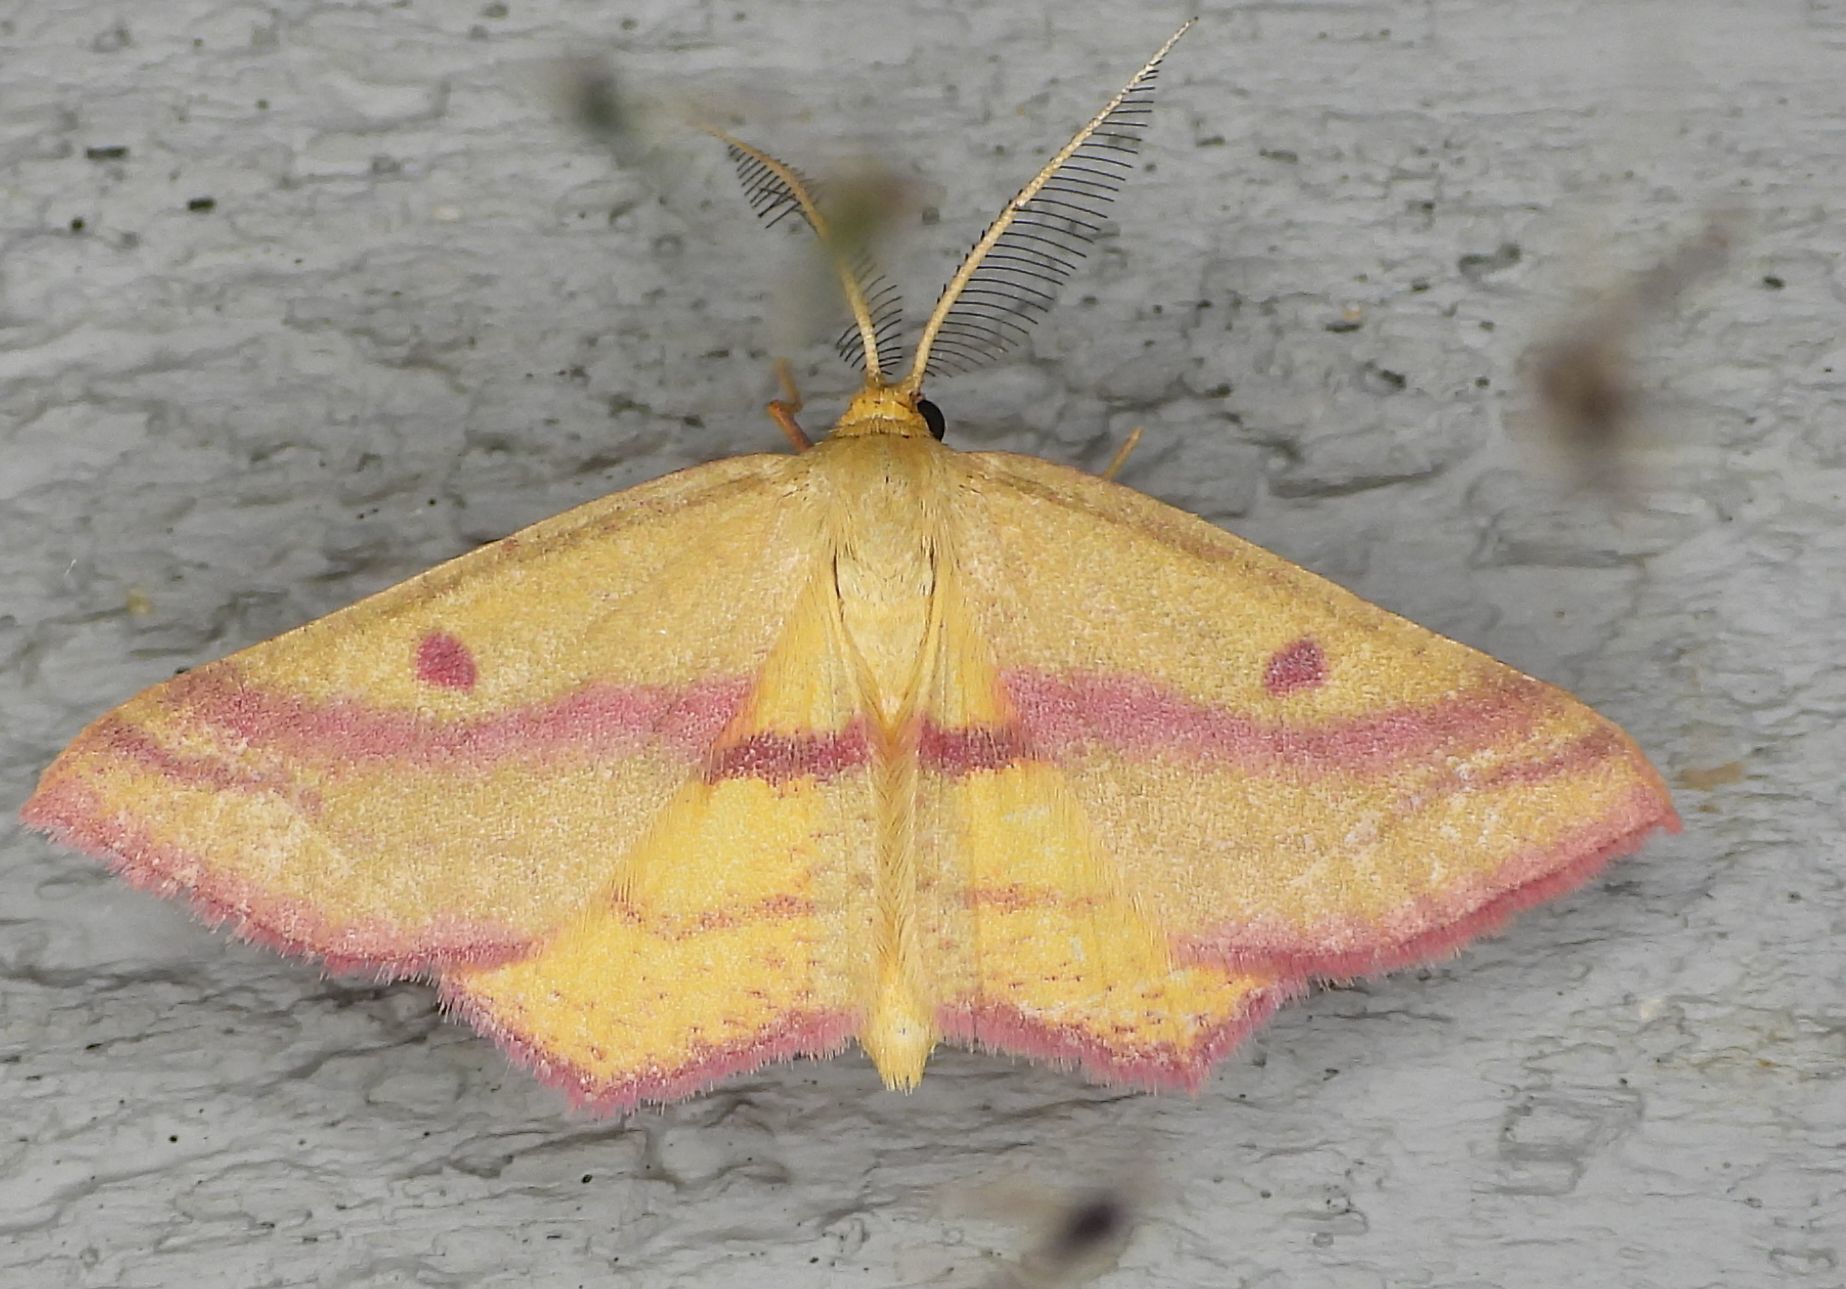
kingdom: Animalia
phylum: Arthropoda
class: Insecta
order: Lepidoptera
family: Geometridae
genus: Haematopis
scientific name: Haematopis grataria
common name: Chickweed geometer
